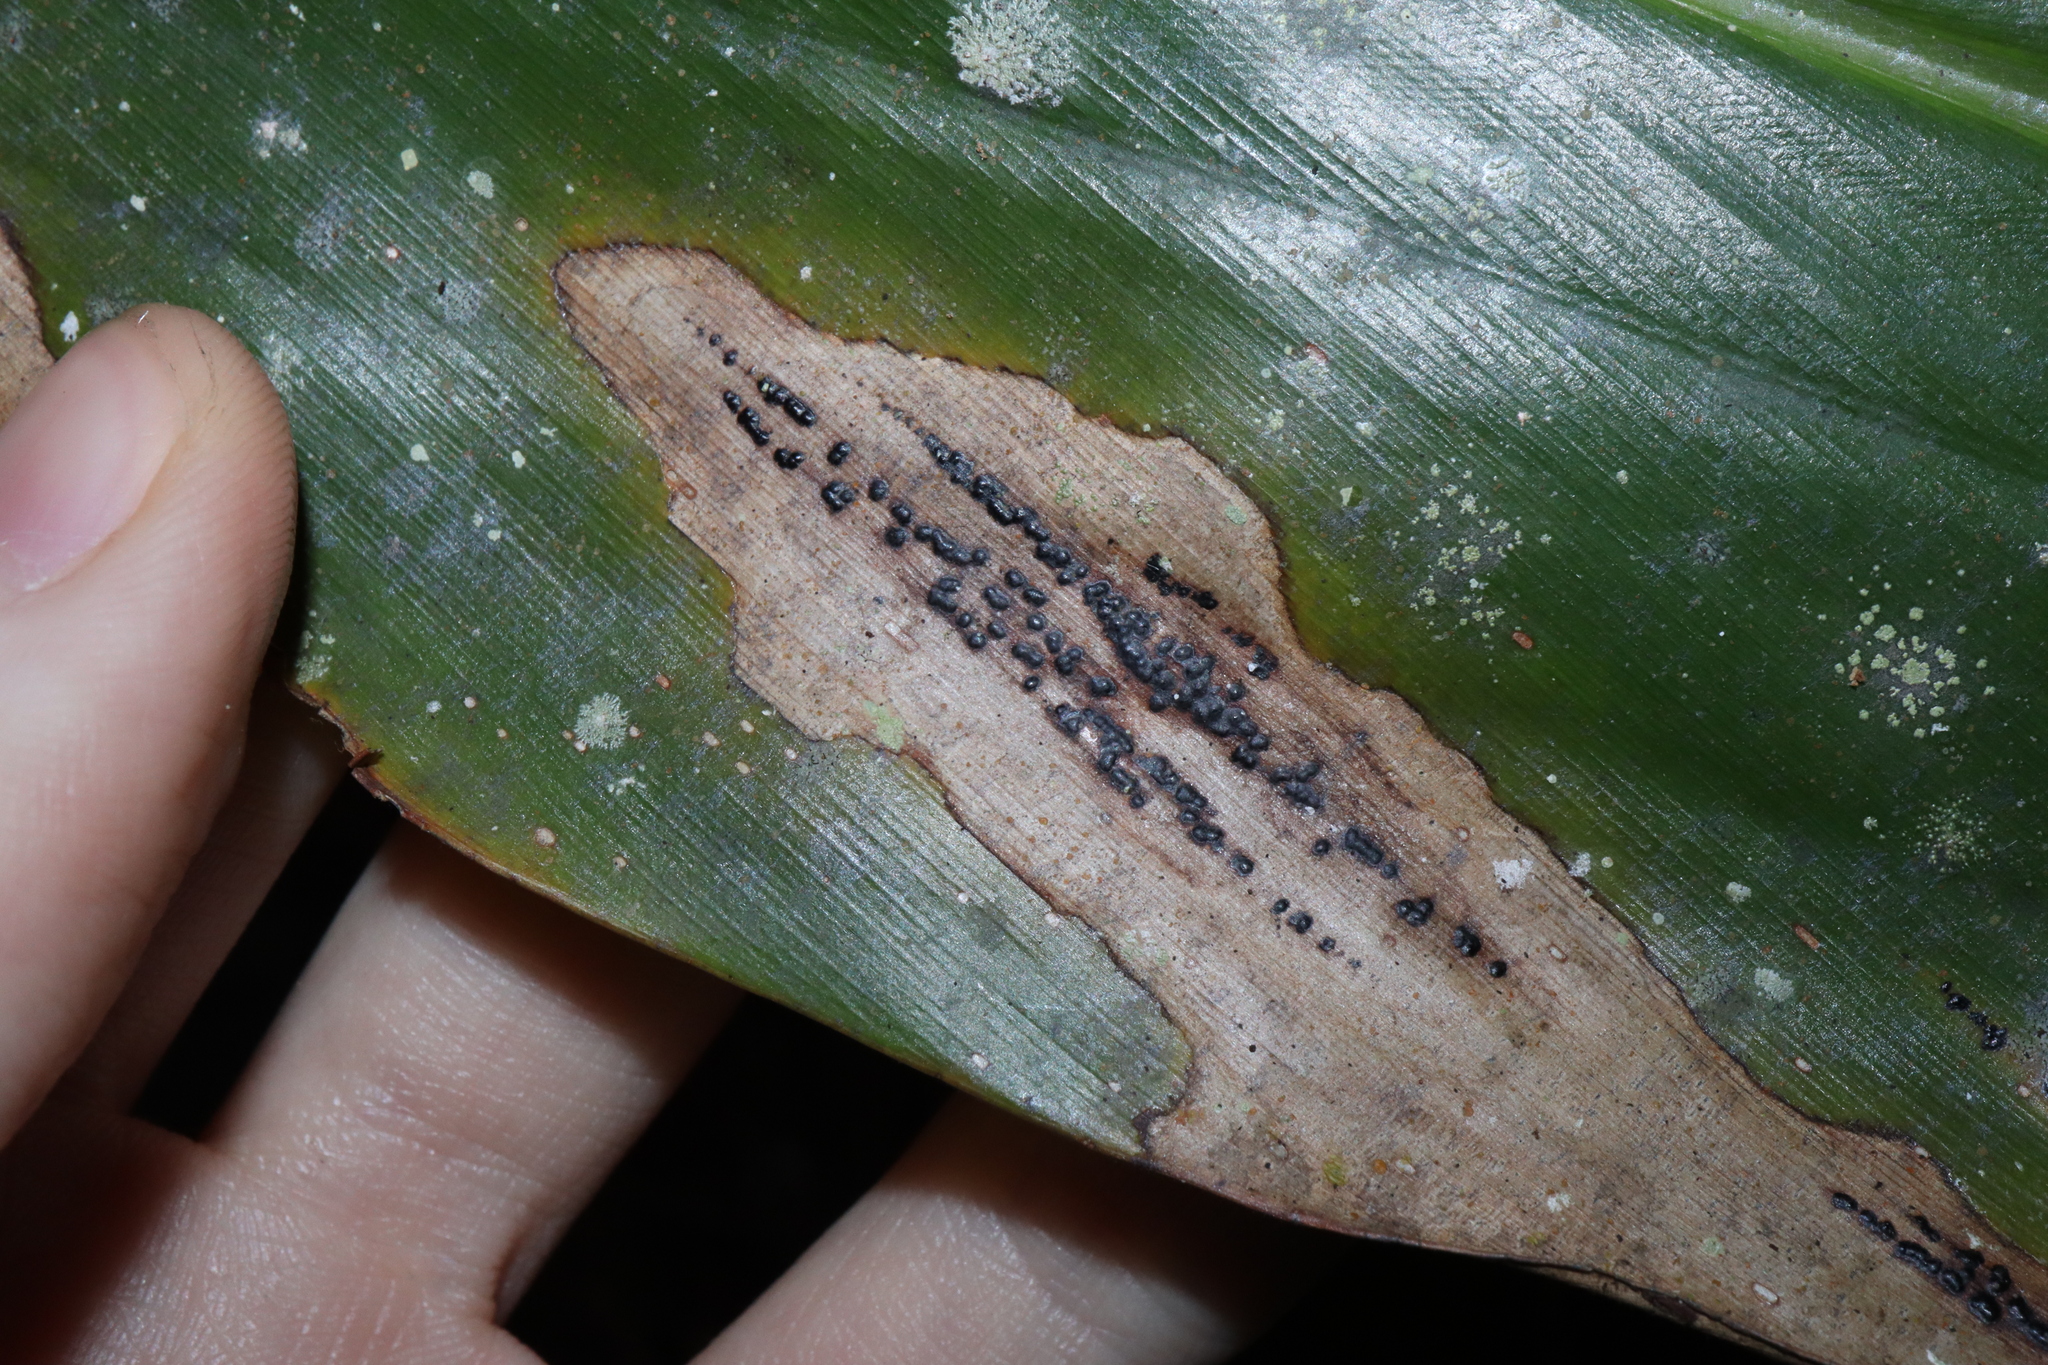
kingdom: Fungi
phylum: Ascomycota
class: Sordariomycetes
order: Phyllachorales
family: Phyllachoraceae
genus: Phyllachora
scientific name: Phyllachora alpiniae
